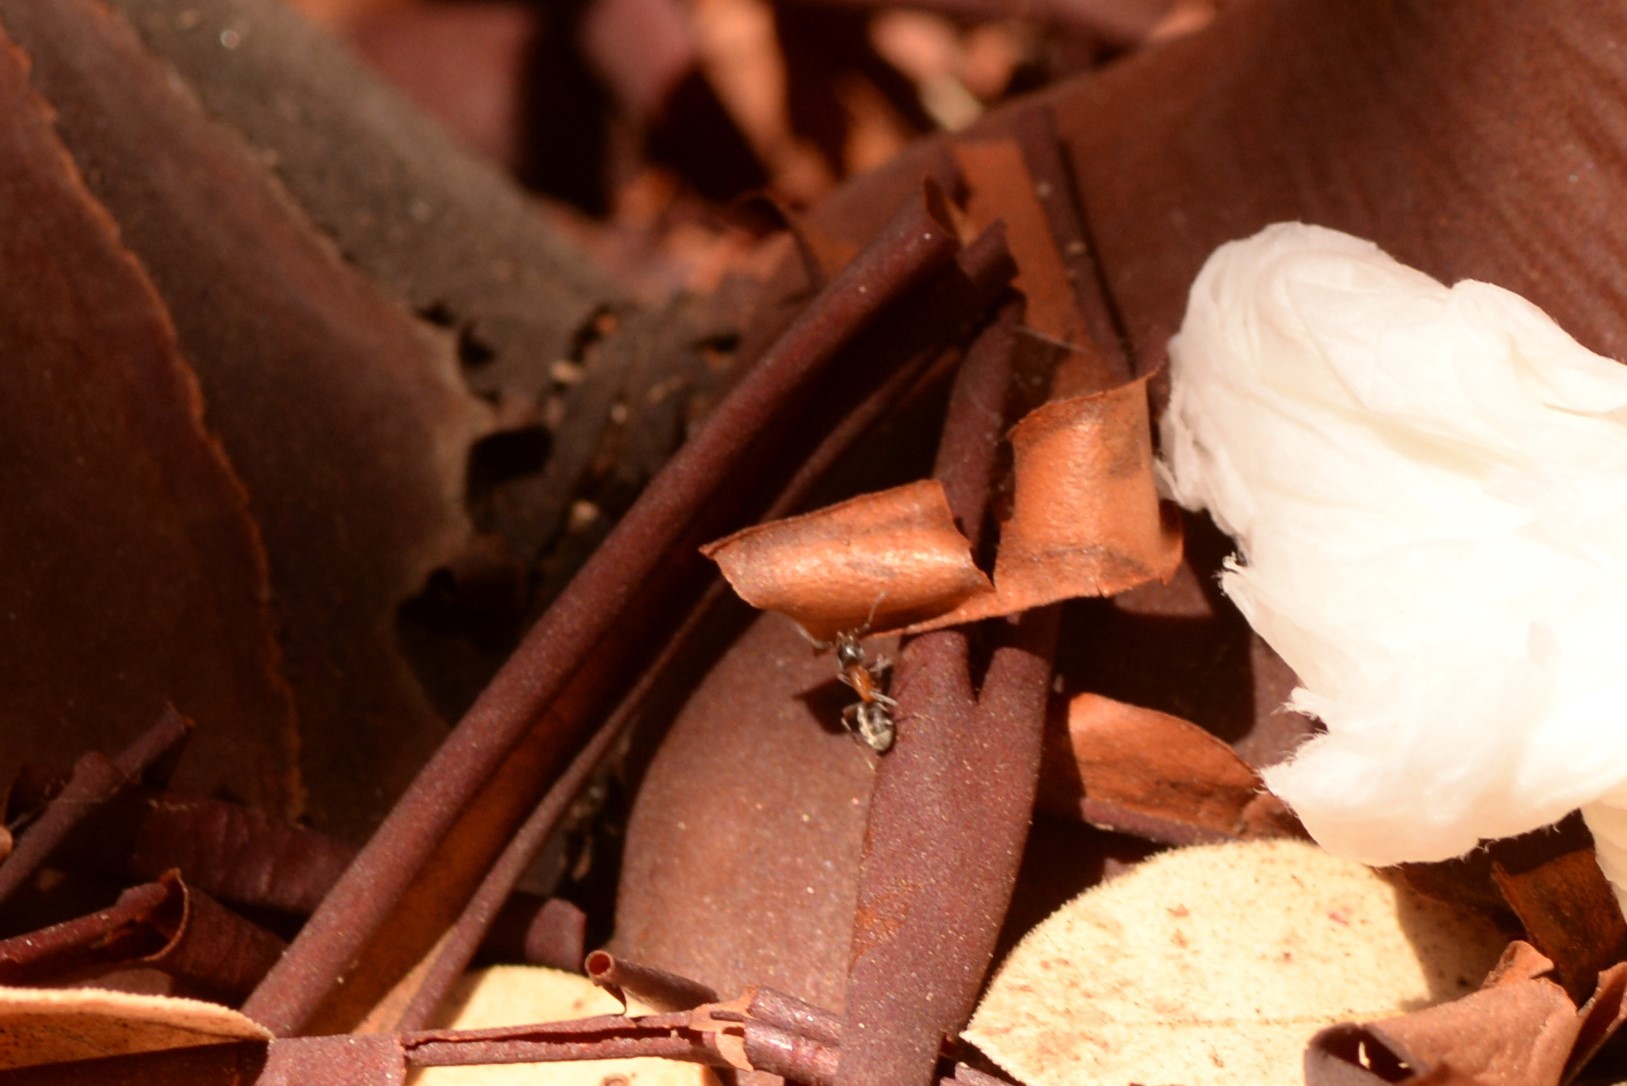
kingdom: Animalia
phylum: Arthropoda
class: Insecta
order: Hymenoptera
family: Formicidae
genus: Liometopum
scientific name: Liometopum occidentale
